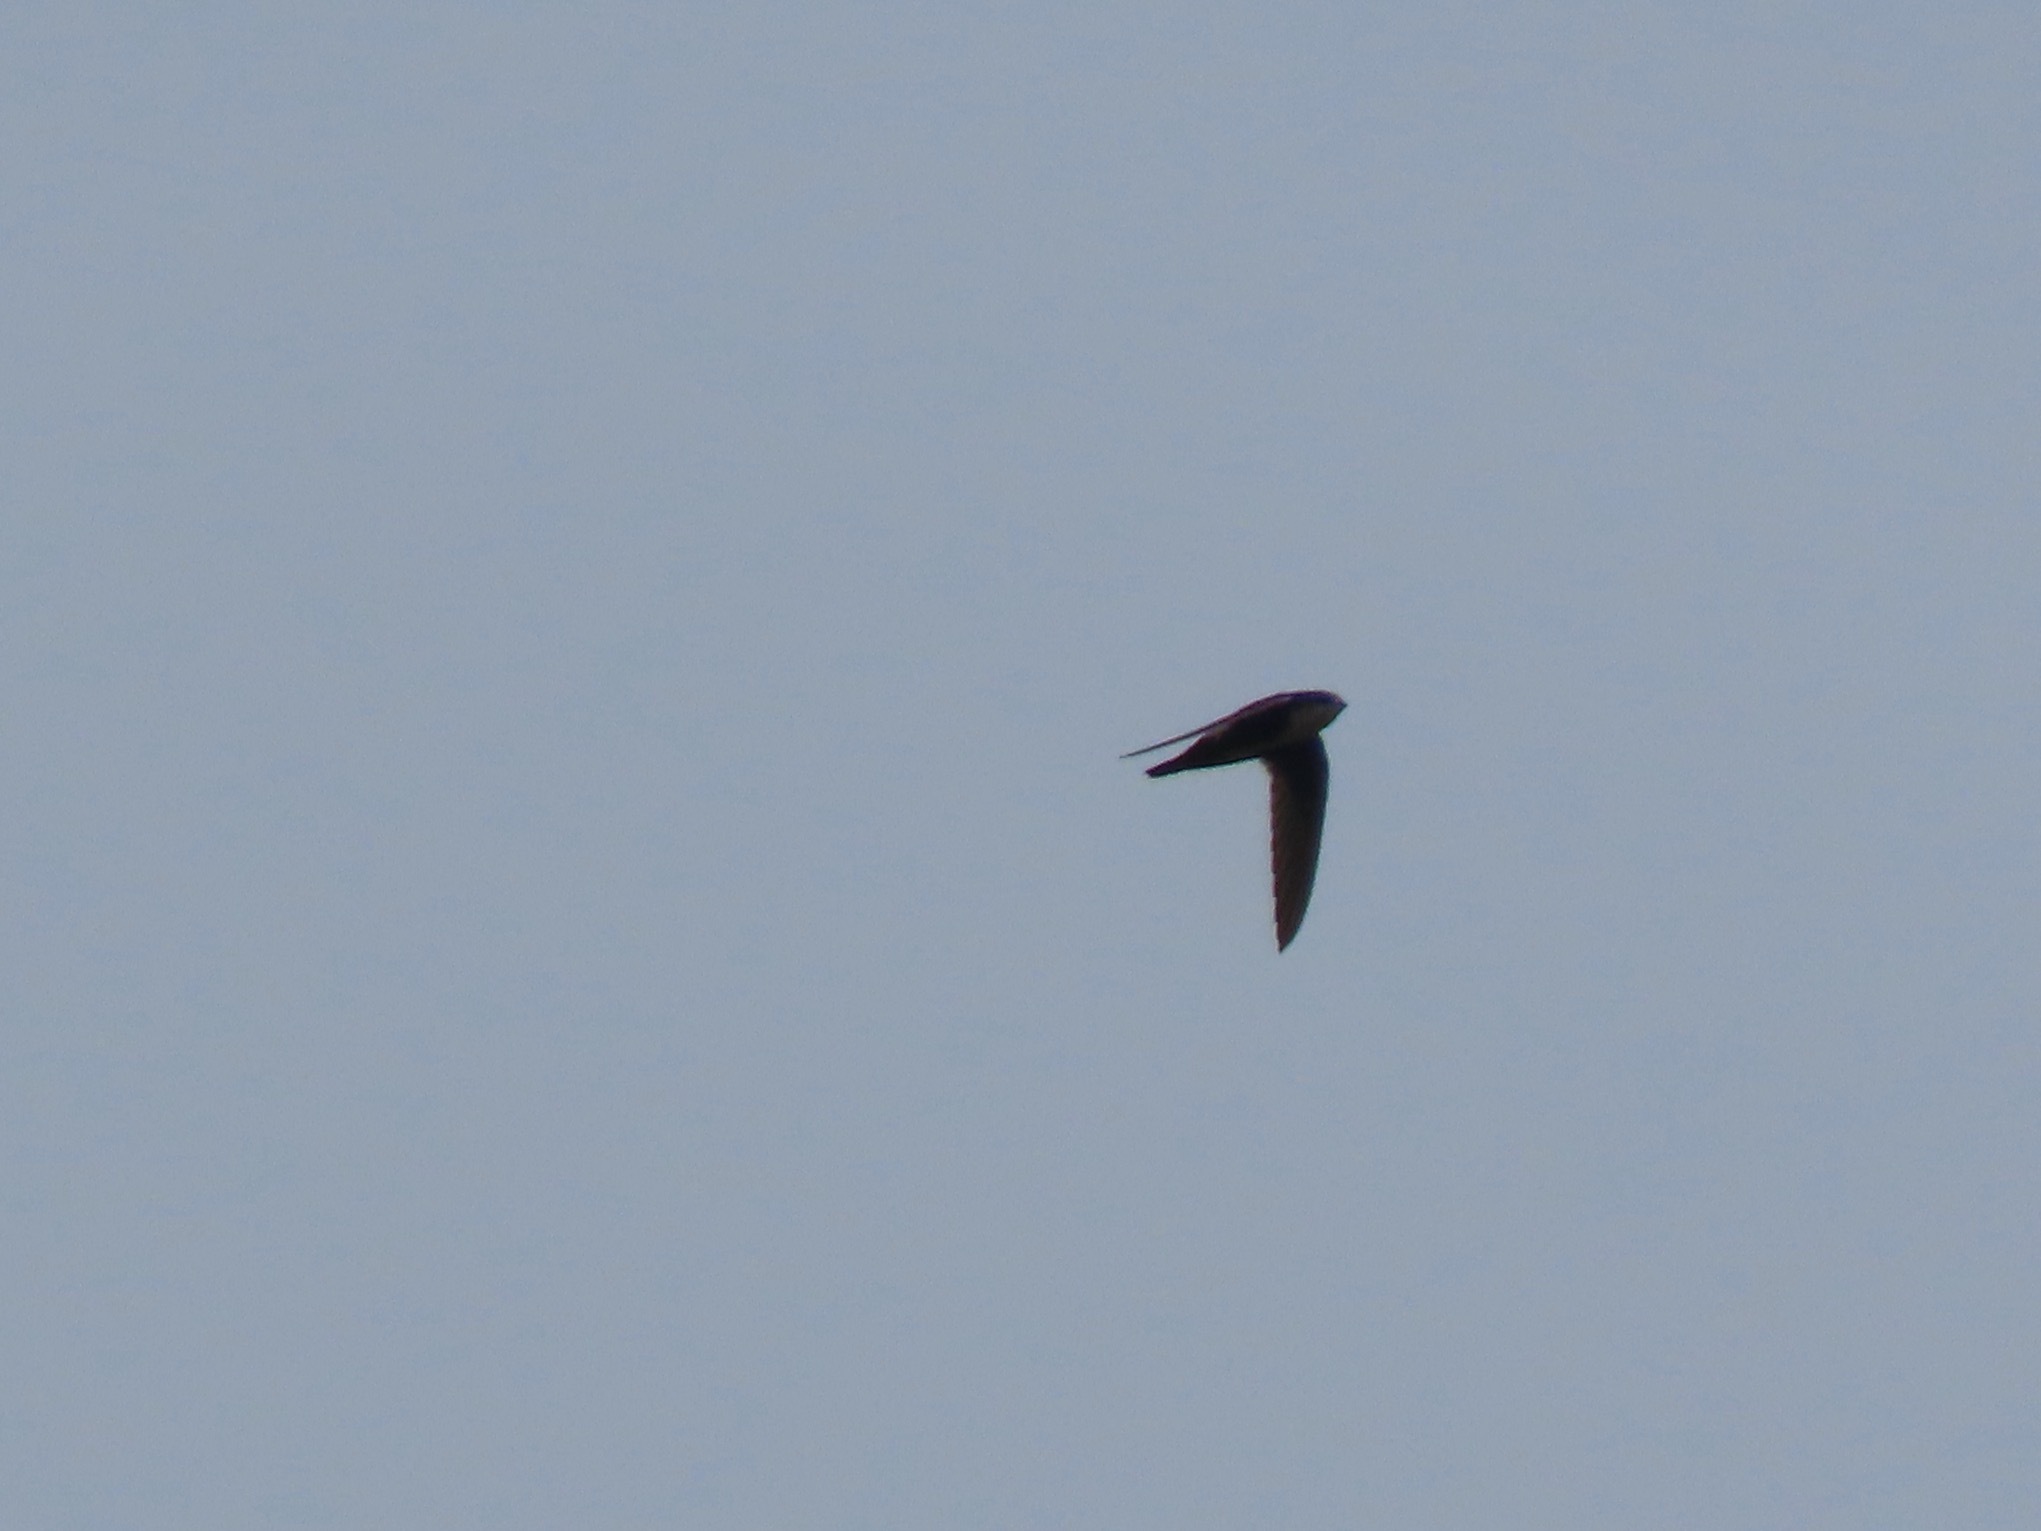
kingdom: Animalia
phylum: Chordata
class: Aves
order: Apodiformes
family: Apodidae
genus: Aeronautes
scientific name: Aeronautes saxatalis
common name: White-throated swift
